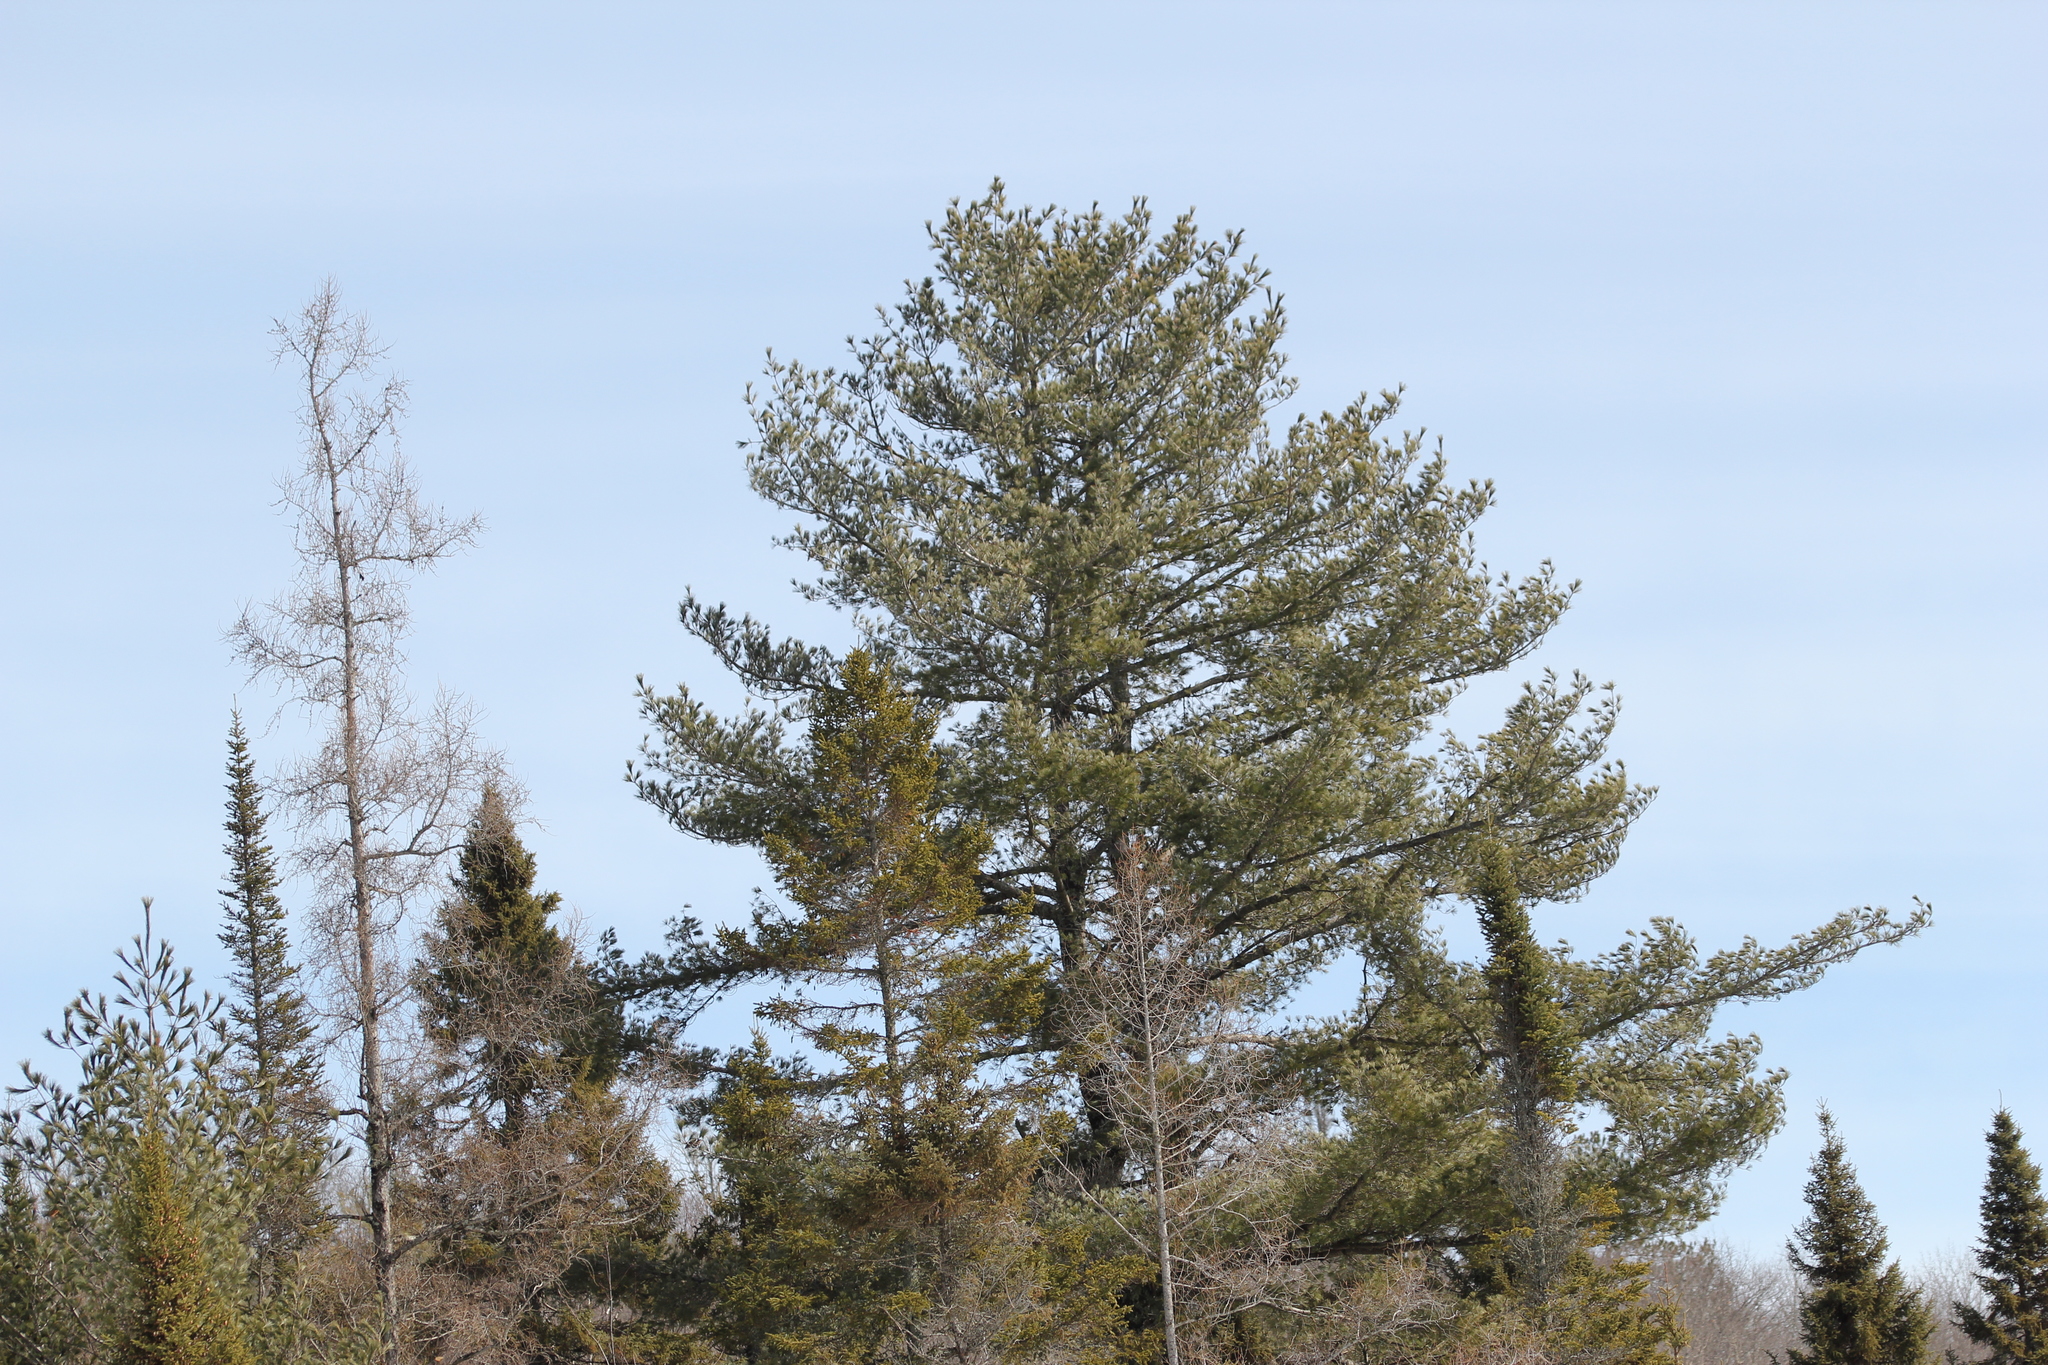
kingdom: Plantae
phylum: Tracheophyta
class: Pinopsida
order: Pinales
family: Pinaceae
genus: Pinus
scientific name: Pinus strobus
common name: Weymouth pine
